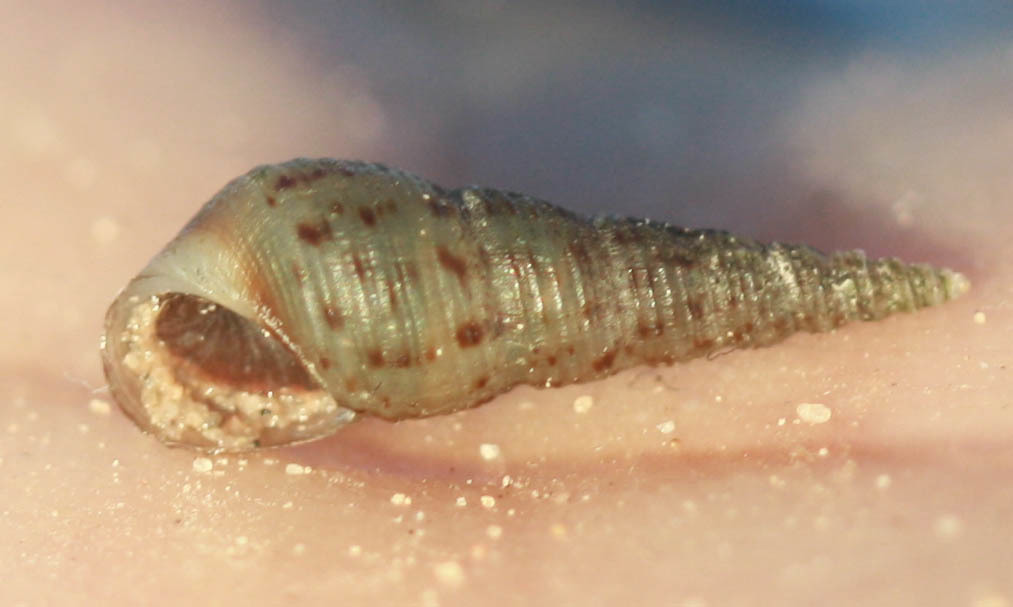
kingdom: Animalia
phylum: Mollusca
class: Gastropoda
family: Thiaridae
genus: Melanoides
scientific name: Melanoides tuberculata
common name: Red-rim melania
